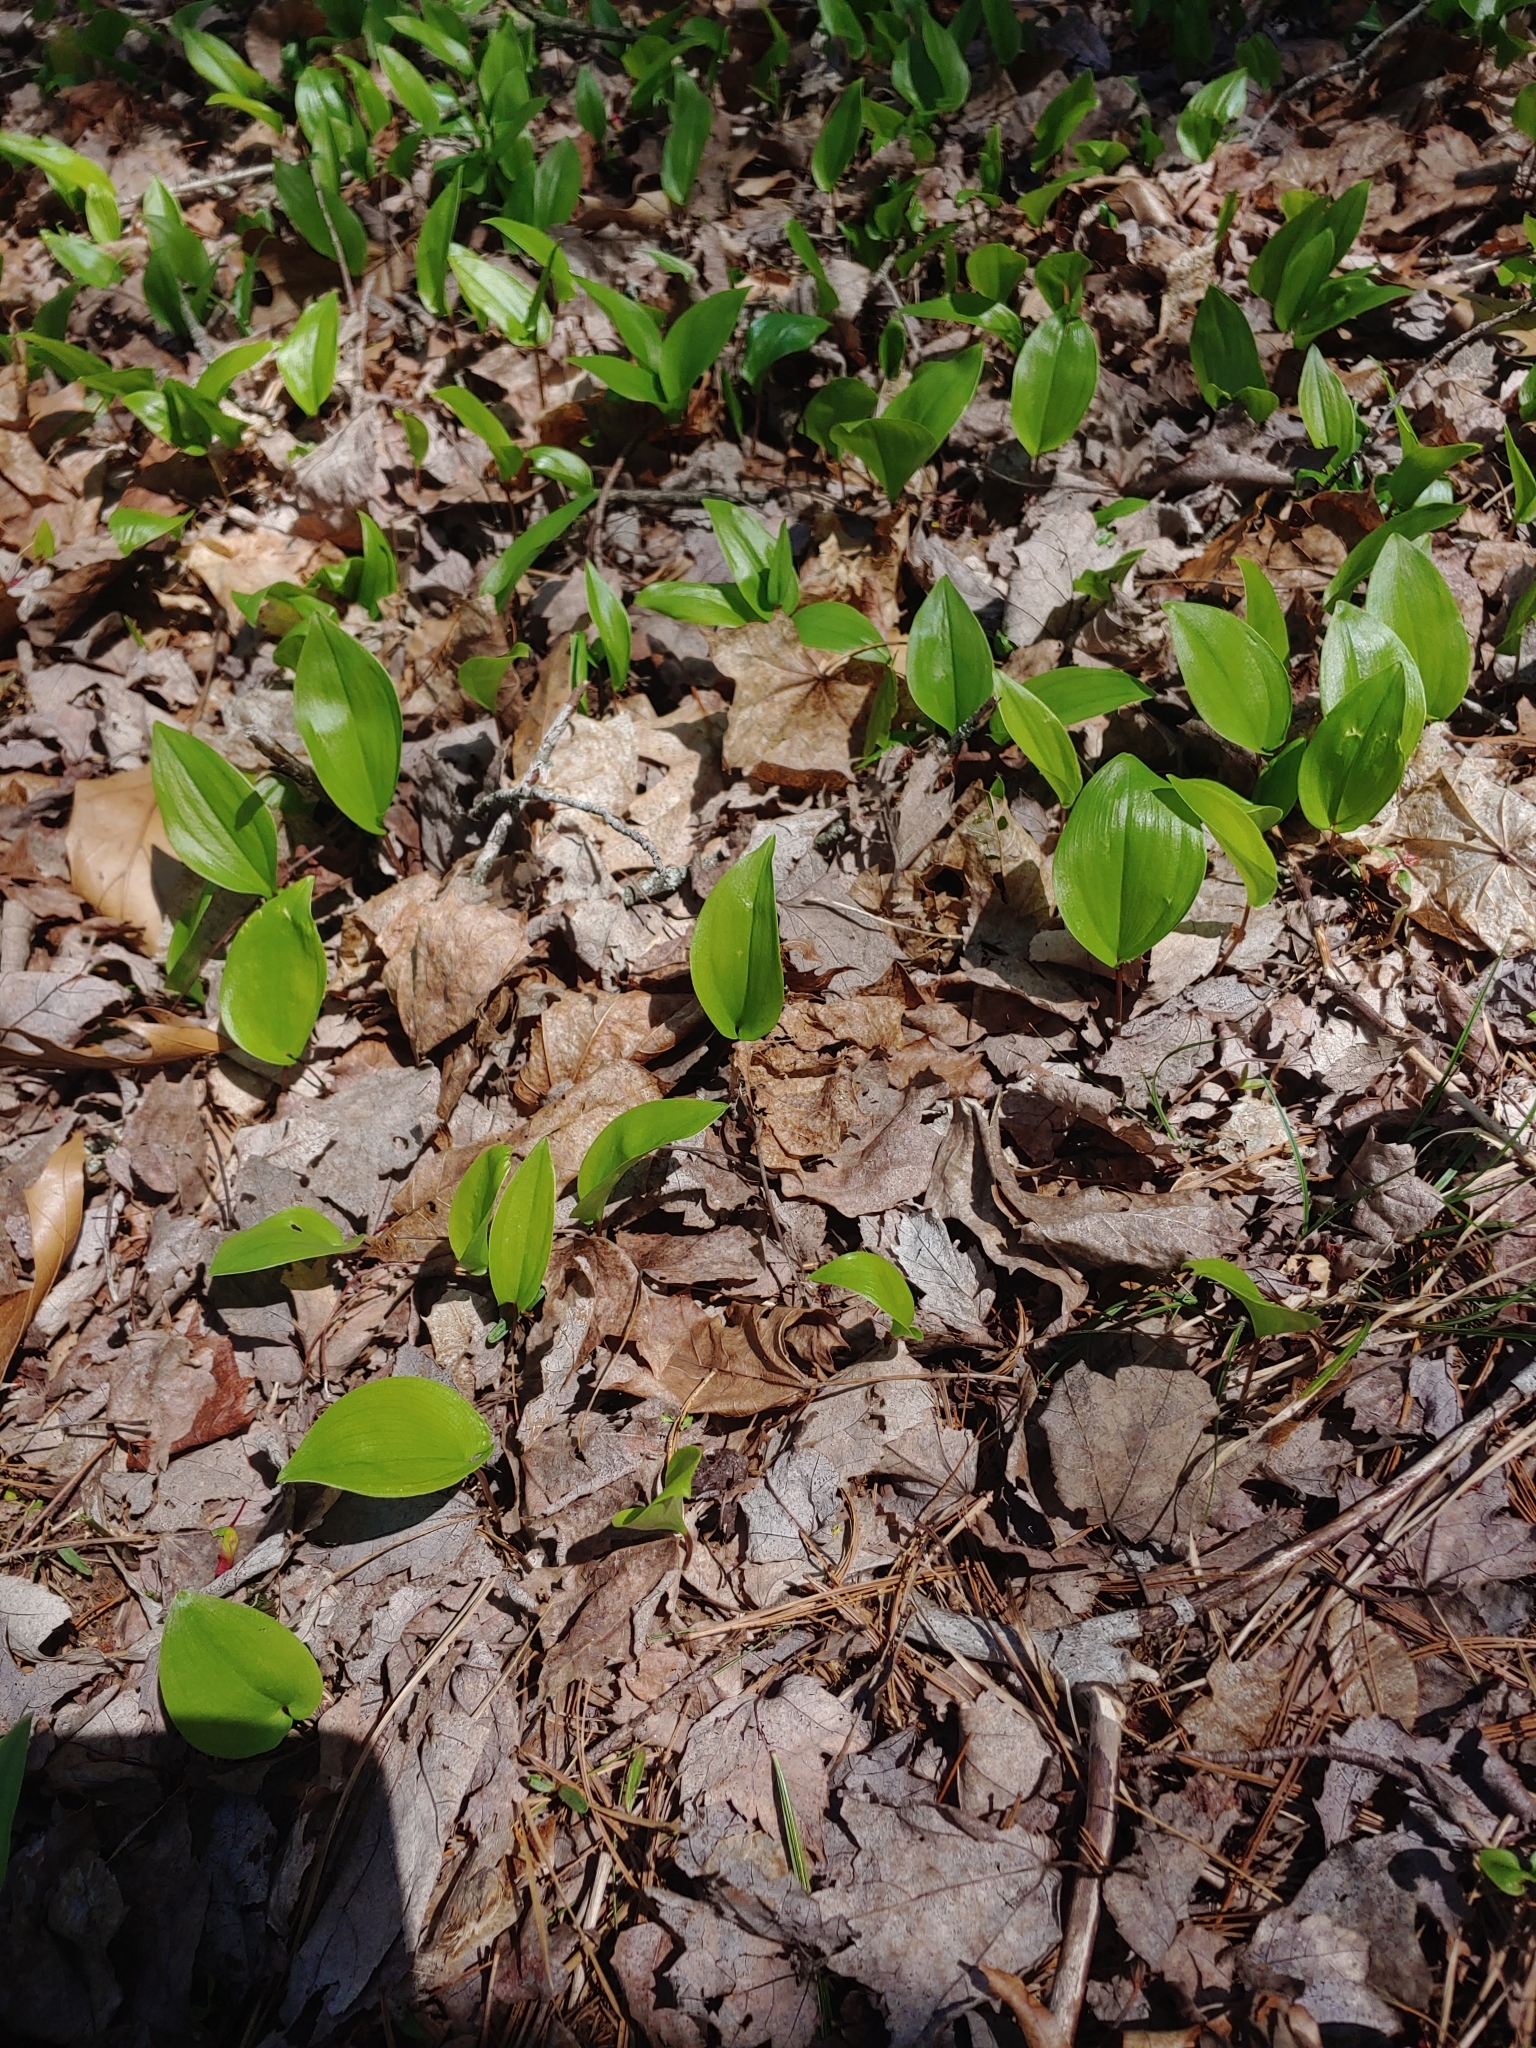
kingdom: Plantae
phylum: Tracheophyta
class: Liliopsida
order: Asparagales
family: Asparagaceae
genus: Maianthemum
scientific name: Maianthemum canadense
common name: False lily-of-the-valley
